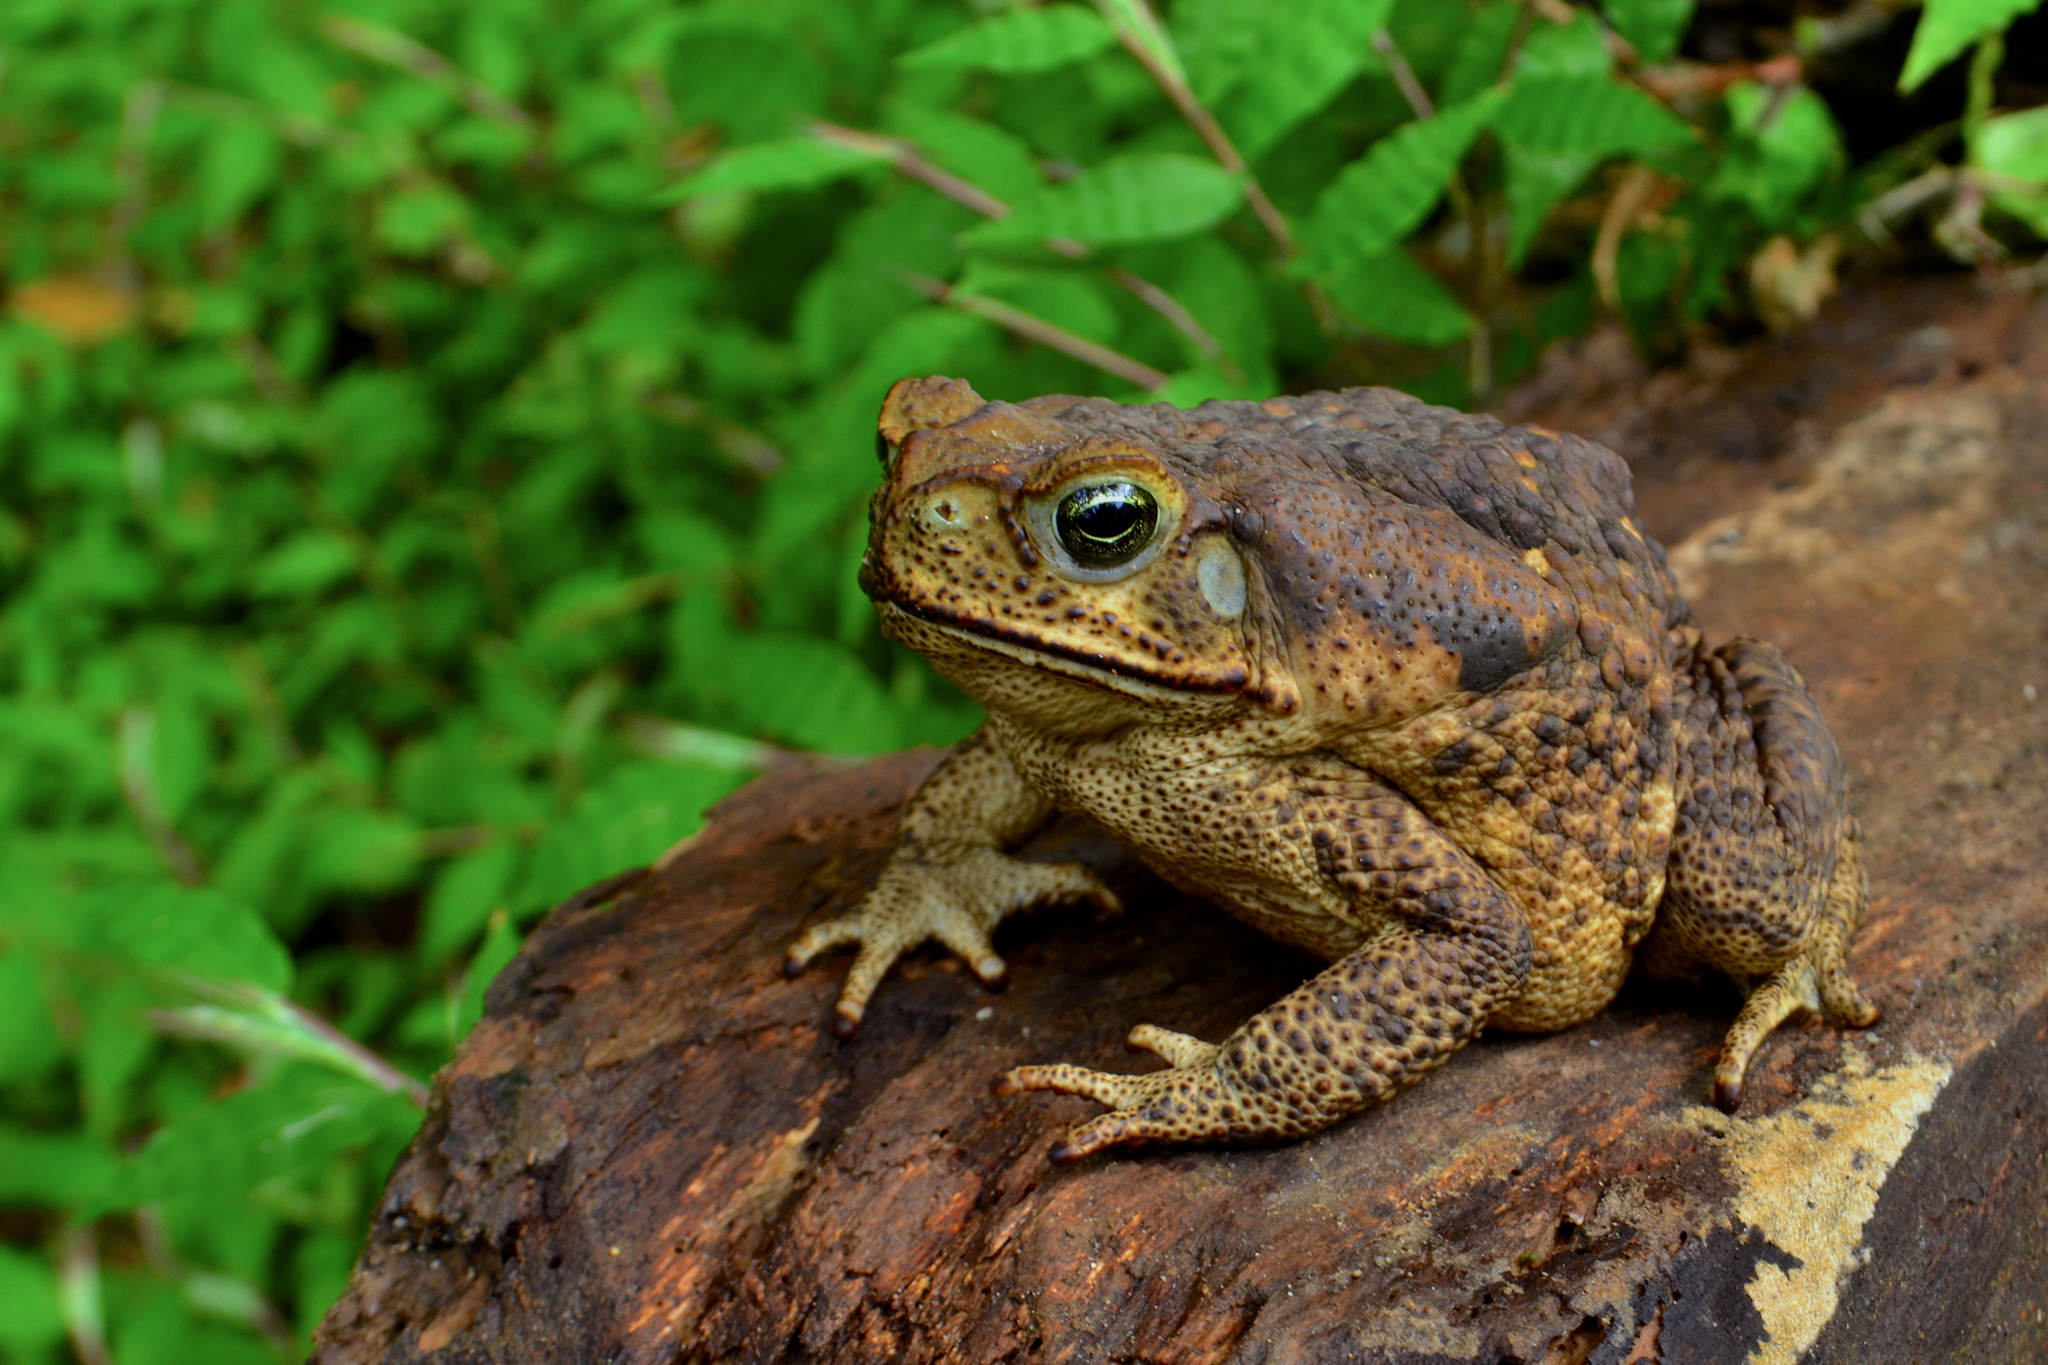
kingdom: Animalia
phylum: Chordata
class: Amphibia
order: Anura
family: Bufonidae
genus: Rhinella
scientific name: Rhinella horribilis
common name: Mesoamerican cane toad
